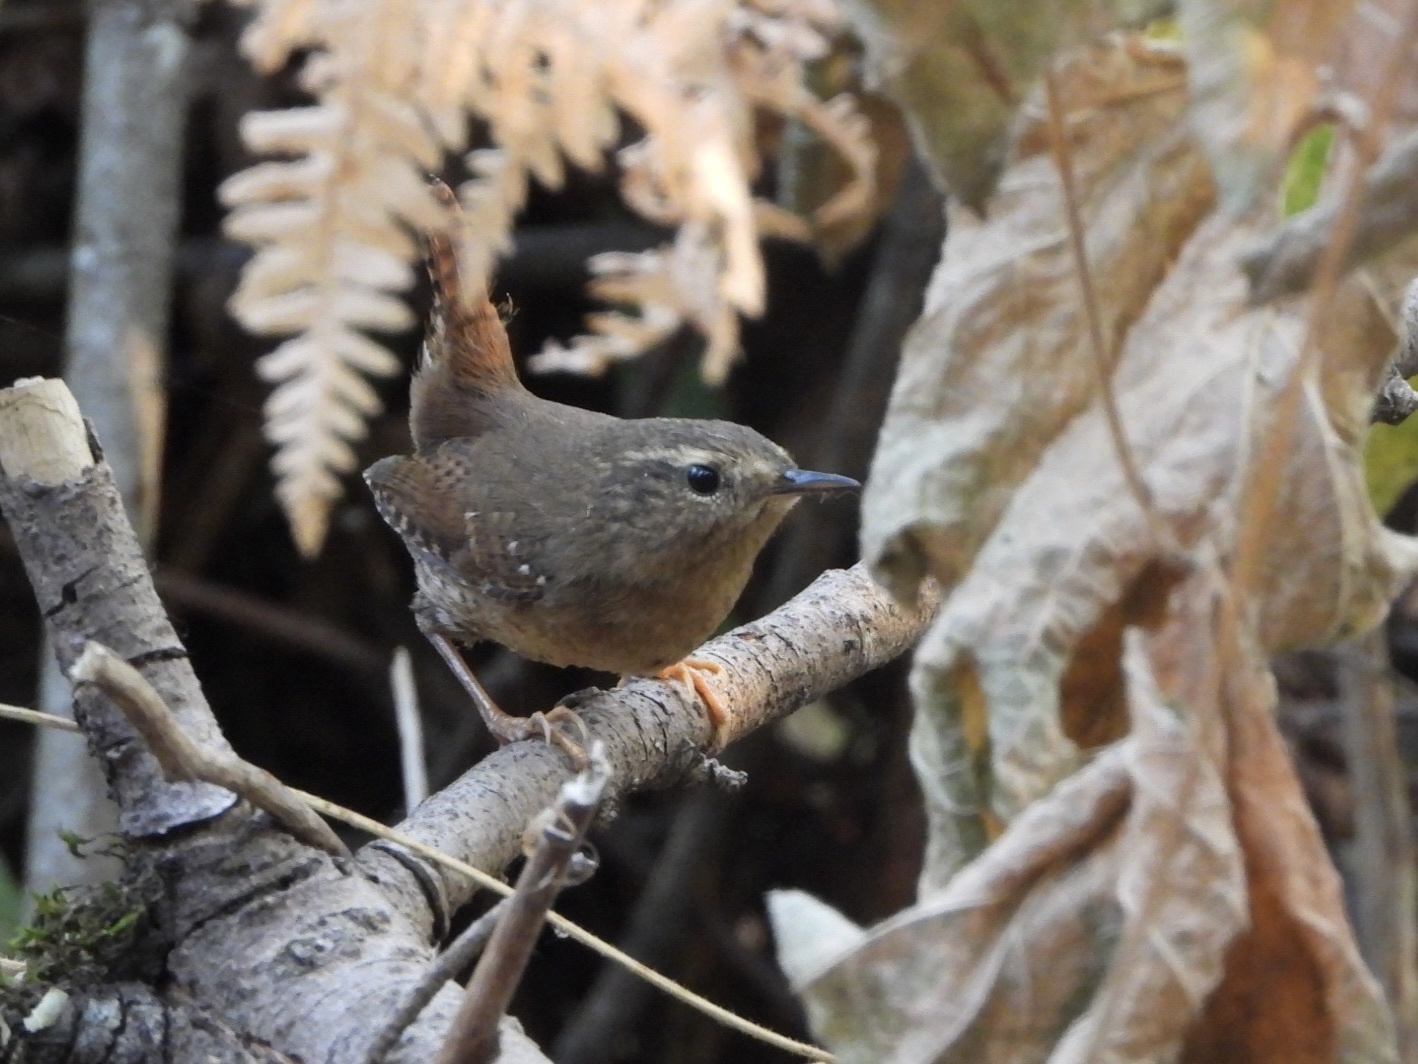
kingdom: Animalia
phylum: Chordata
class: Aves
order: Passeriformes
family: Troglodytidae
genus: Troglodytes
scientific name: Troglodytes pacificus
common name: Pacific wren
